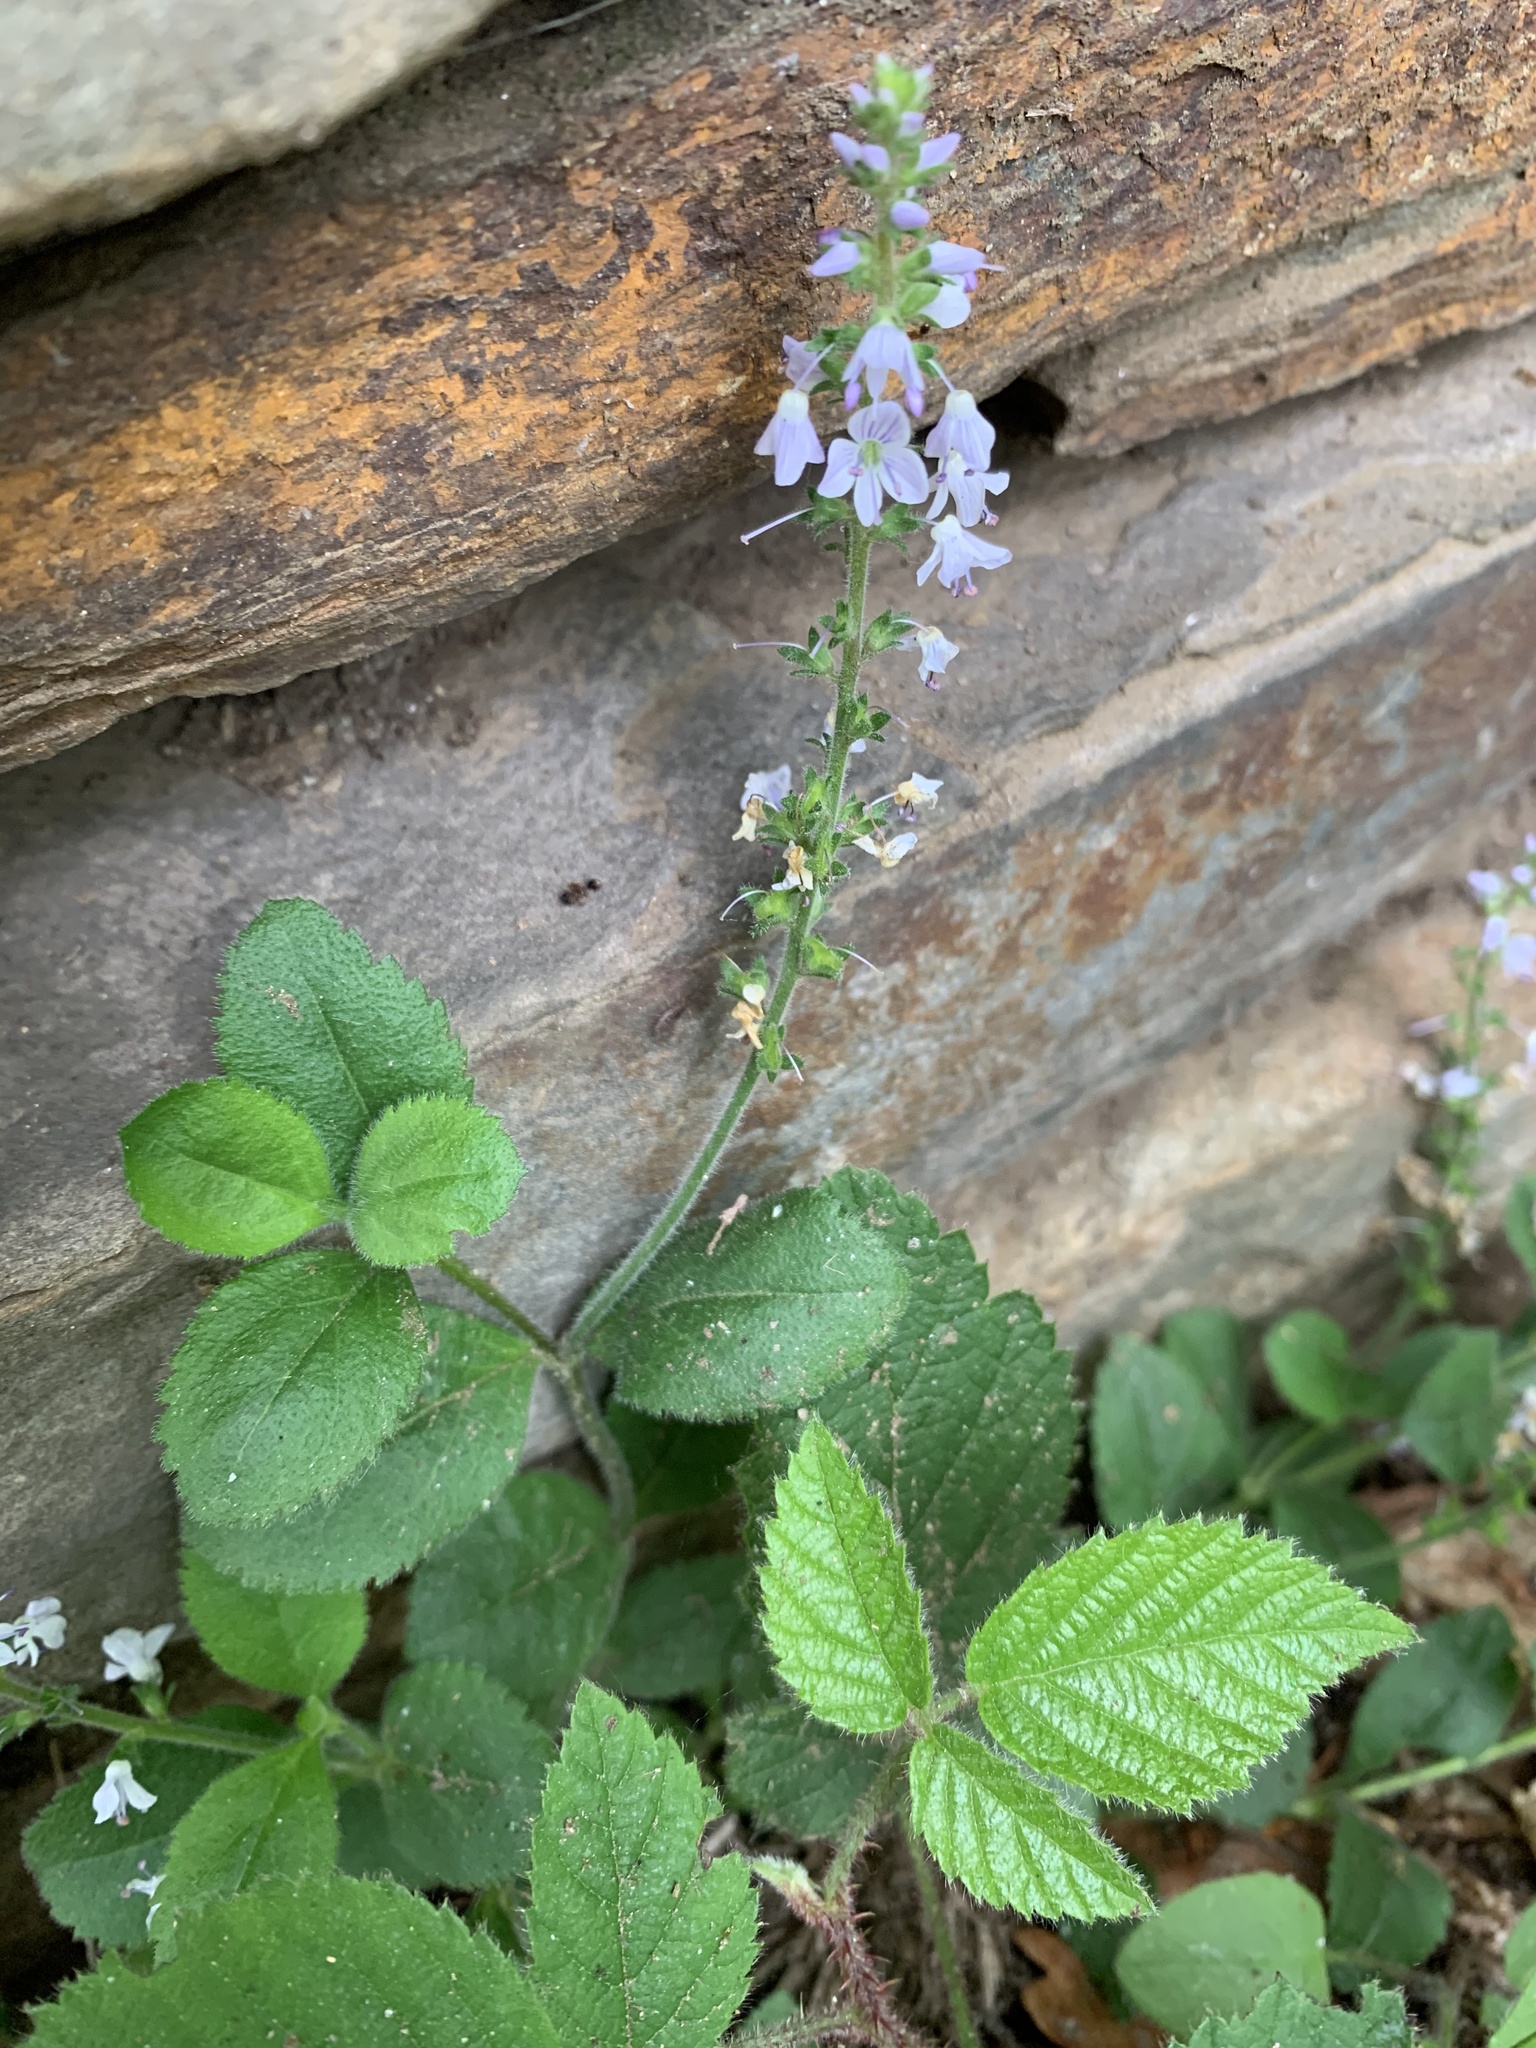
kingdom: Plantae
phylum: Tracheophyta
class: Magnoliopsida
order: Lamiales
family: Plantaginaceae
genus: Veronica
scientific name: Veronica officinalis
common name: Common speedwell
